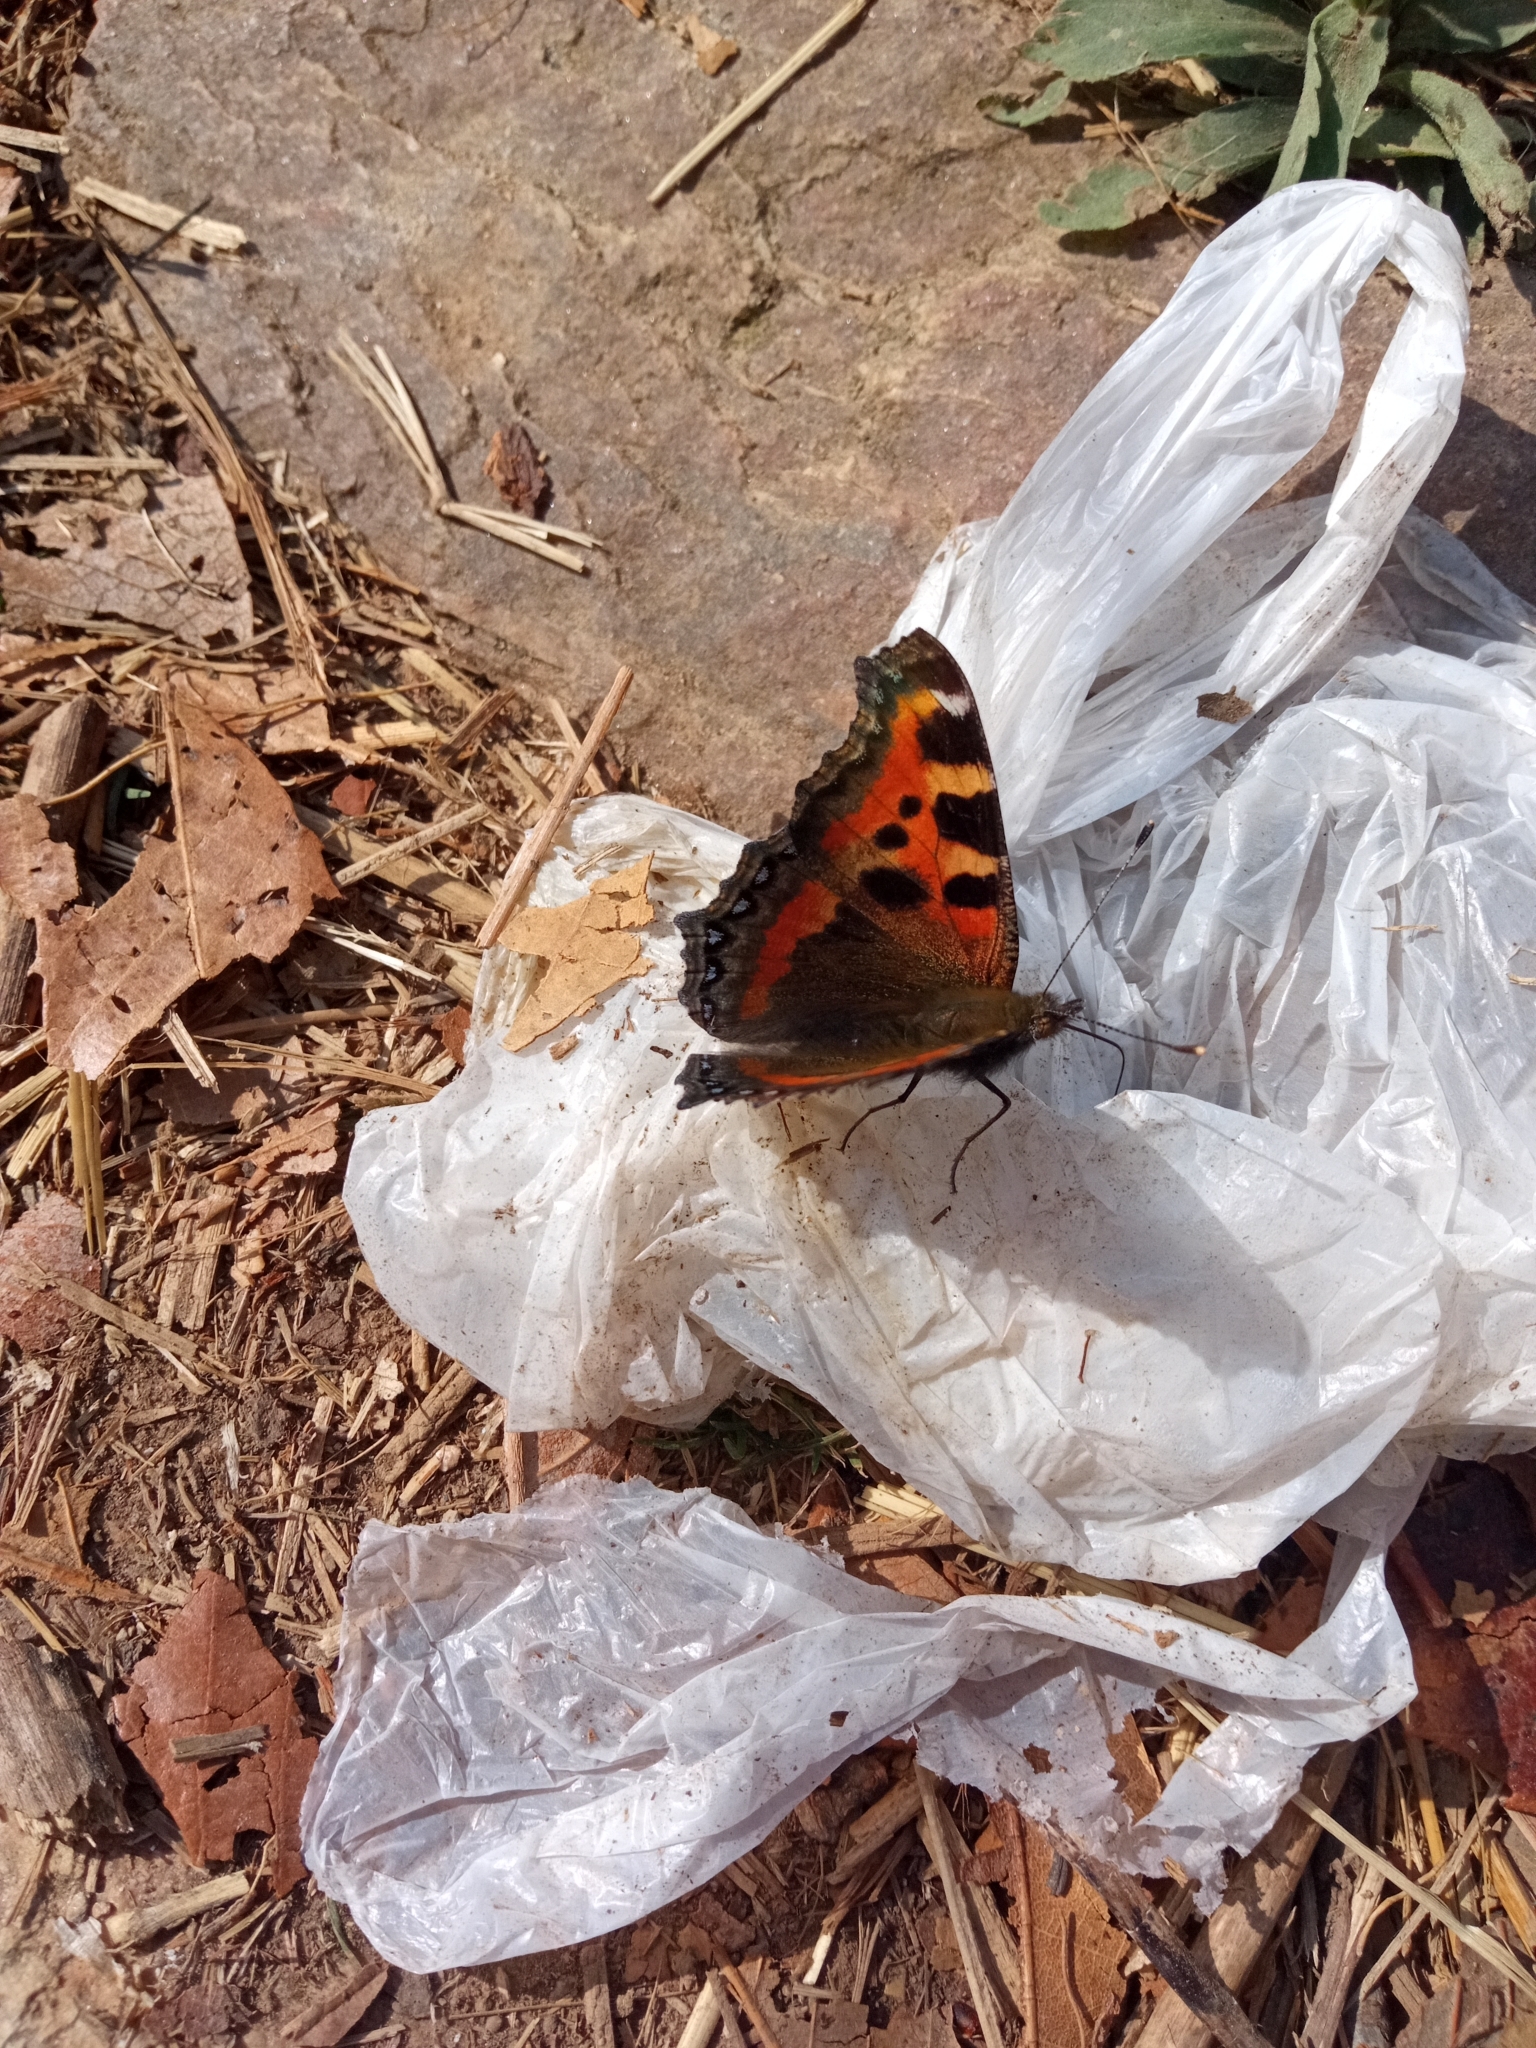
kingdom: Animalia
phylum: Arthropoda
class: Insecta
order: Lepidoptera
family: Nymphalidae
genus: Aglais
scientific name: Aglais caschmirensis
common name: Indian tortoiseshell
